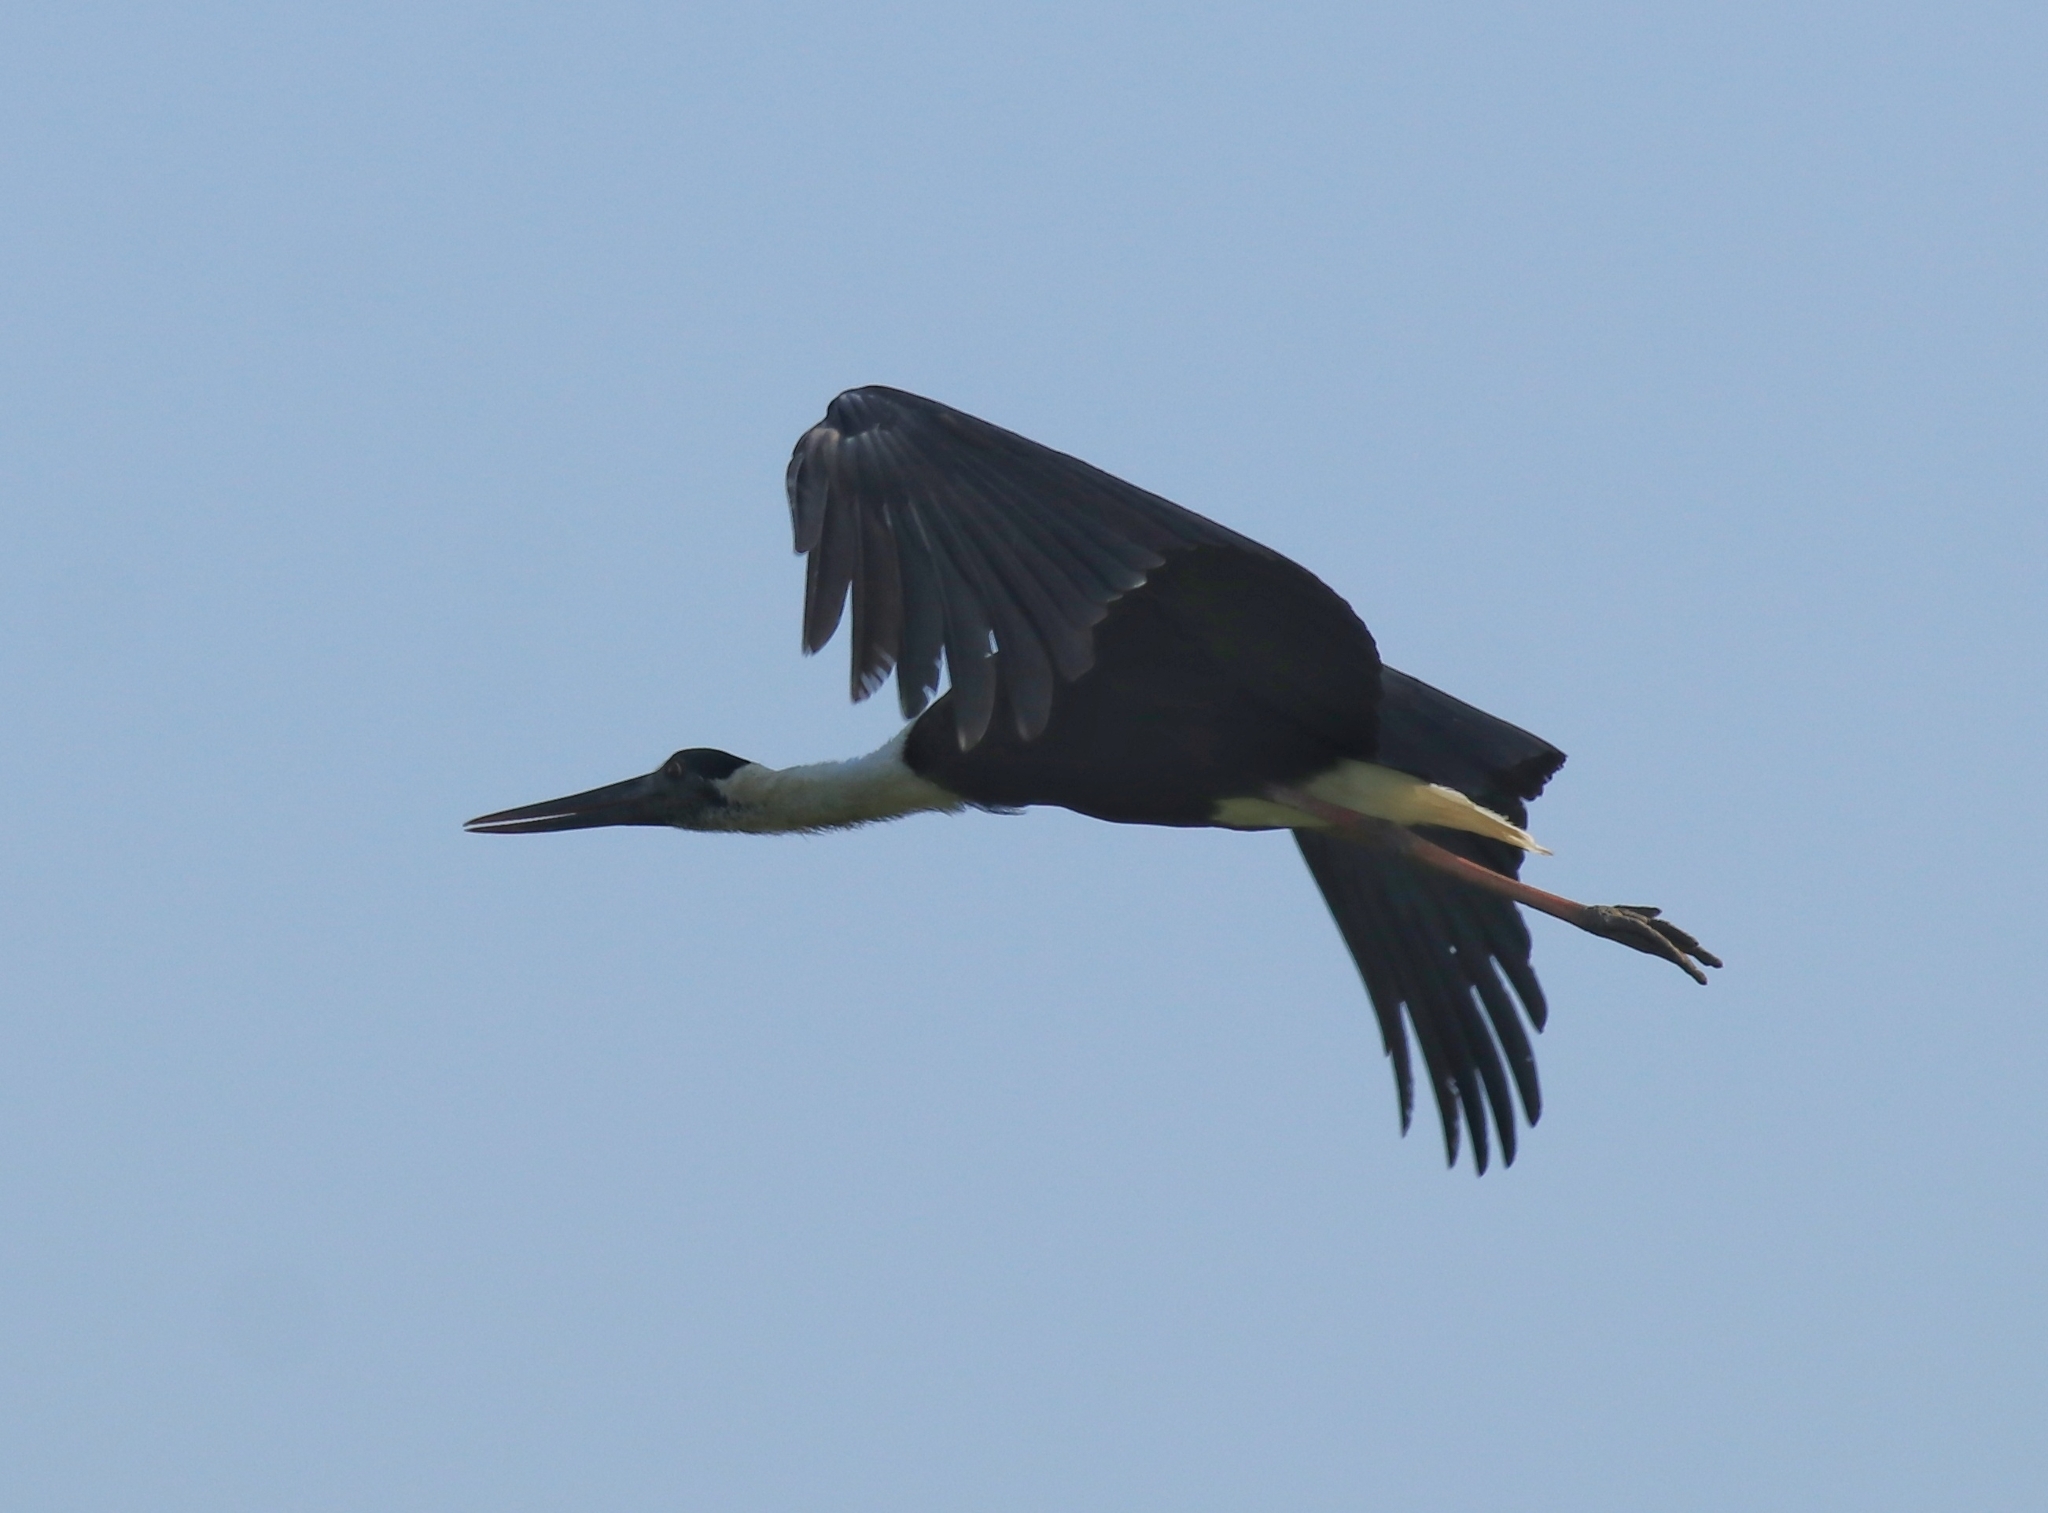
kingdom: Animalia
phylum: Chordata
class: Aves
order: Ciconiiformes
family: Ciconiidae
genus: Ciconia
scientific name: Ciconia episcopus
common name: Woolly-necked stork
